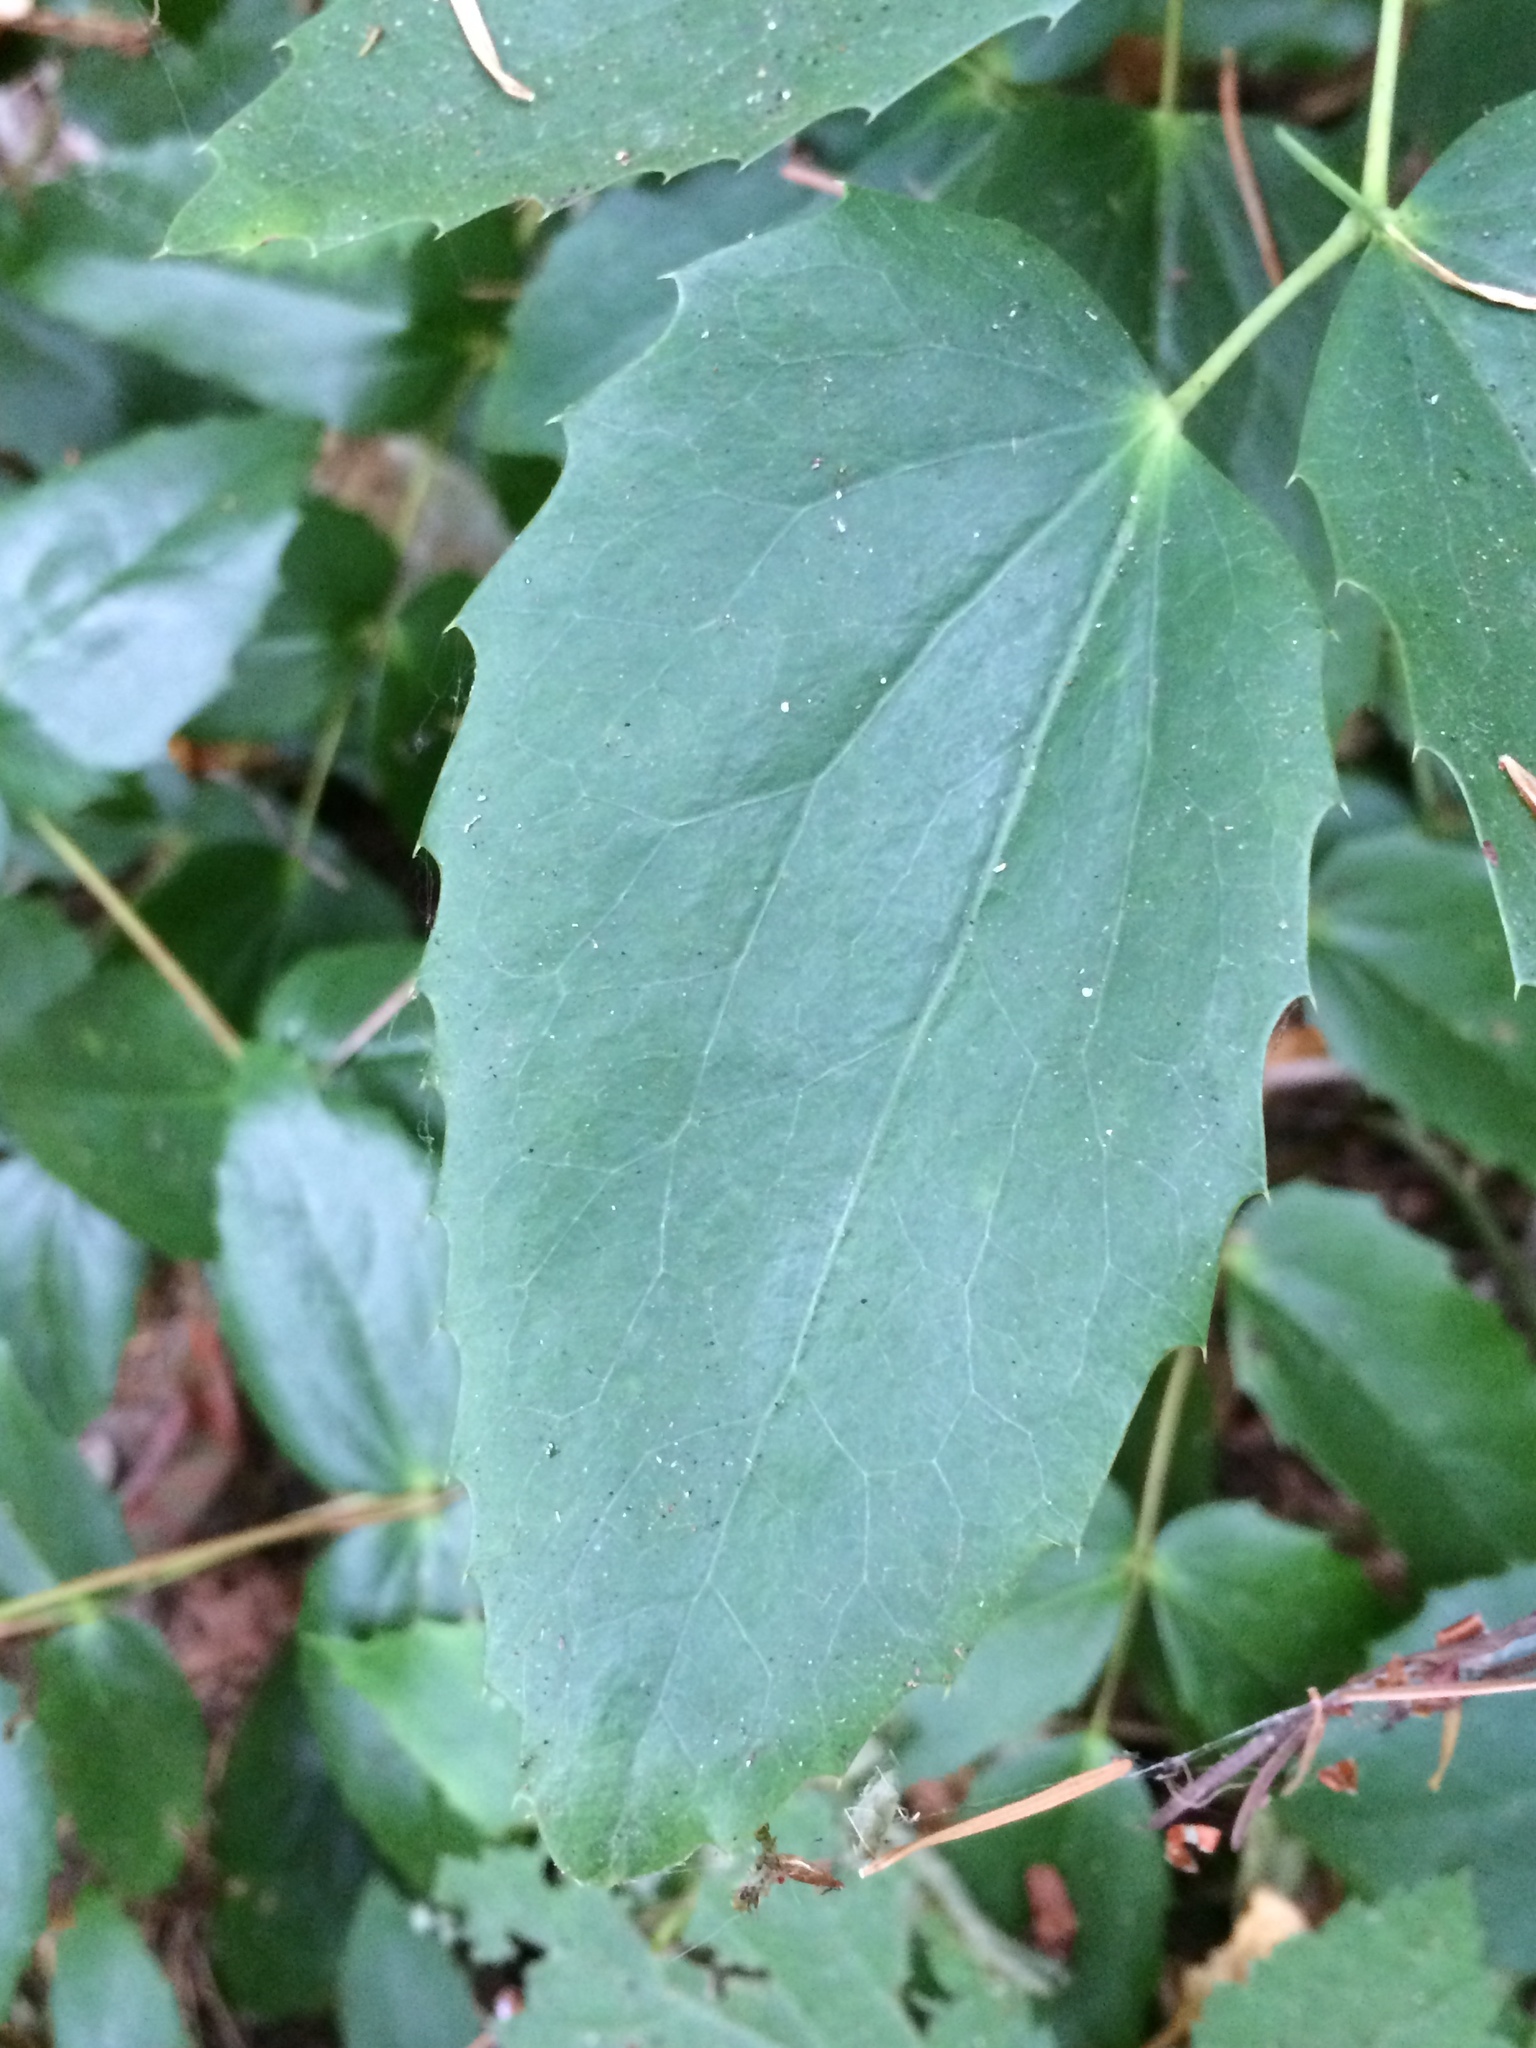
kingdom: Plantae
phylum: Tracheophyta
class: Magnoliopsida
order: Ranunculales
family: Berberidaceae
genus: Mahonia
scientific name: Mahonia nervosa
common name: Cascade oregon-grape
